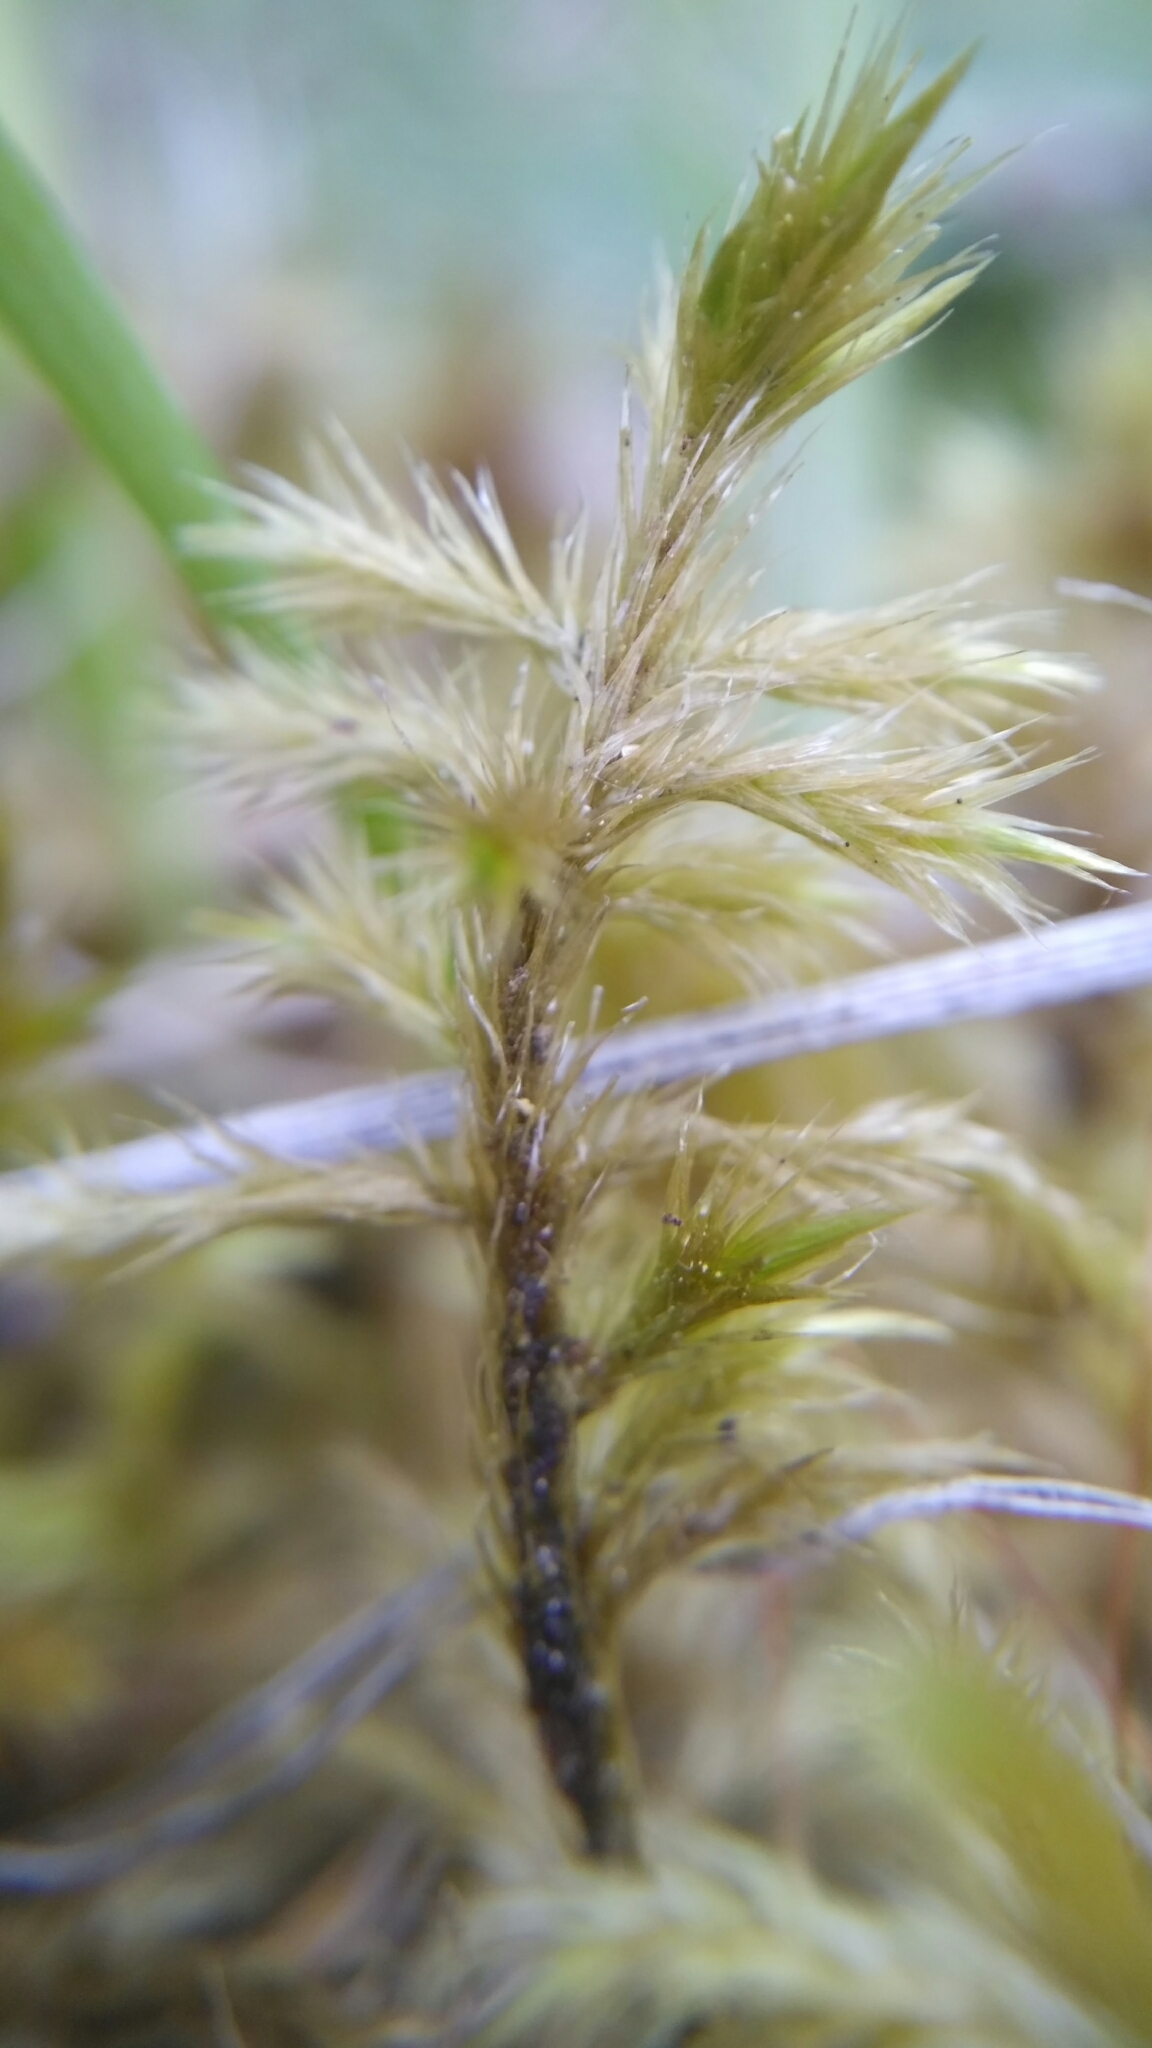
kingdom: Plantae
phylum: Bryophyta
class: Bryopsida
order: Hypnales
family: Amblystegiaceae
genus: Tomentypnum
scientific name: Tomentypnum nitens
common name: Golden fuzzy fen moss
